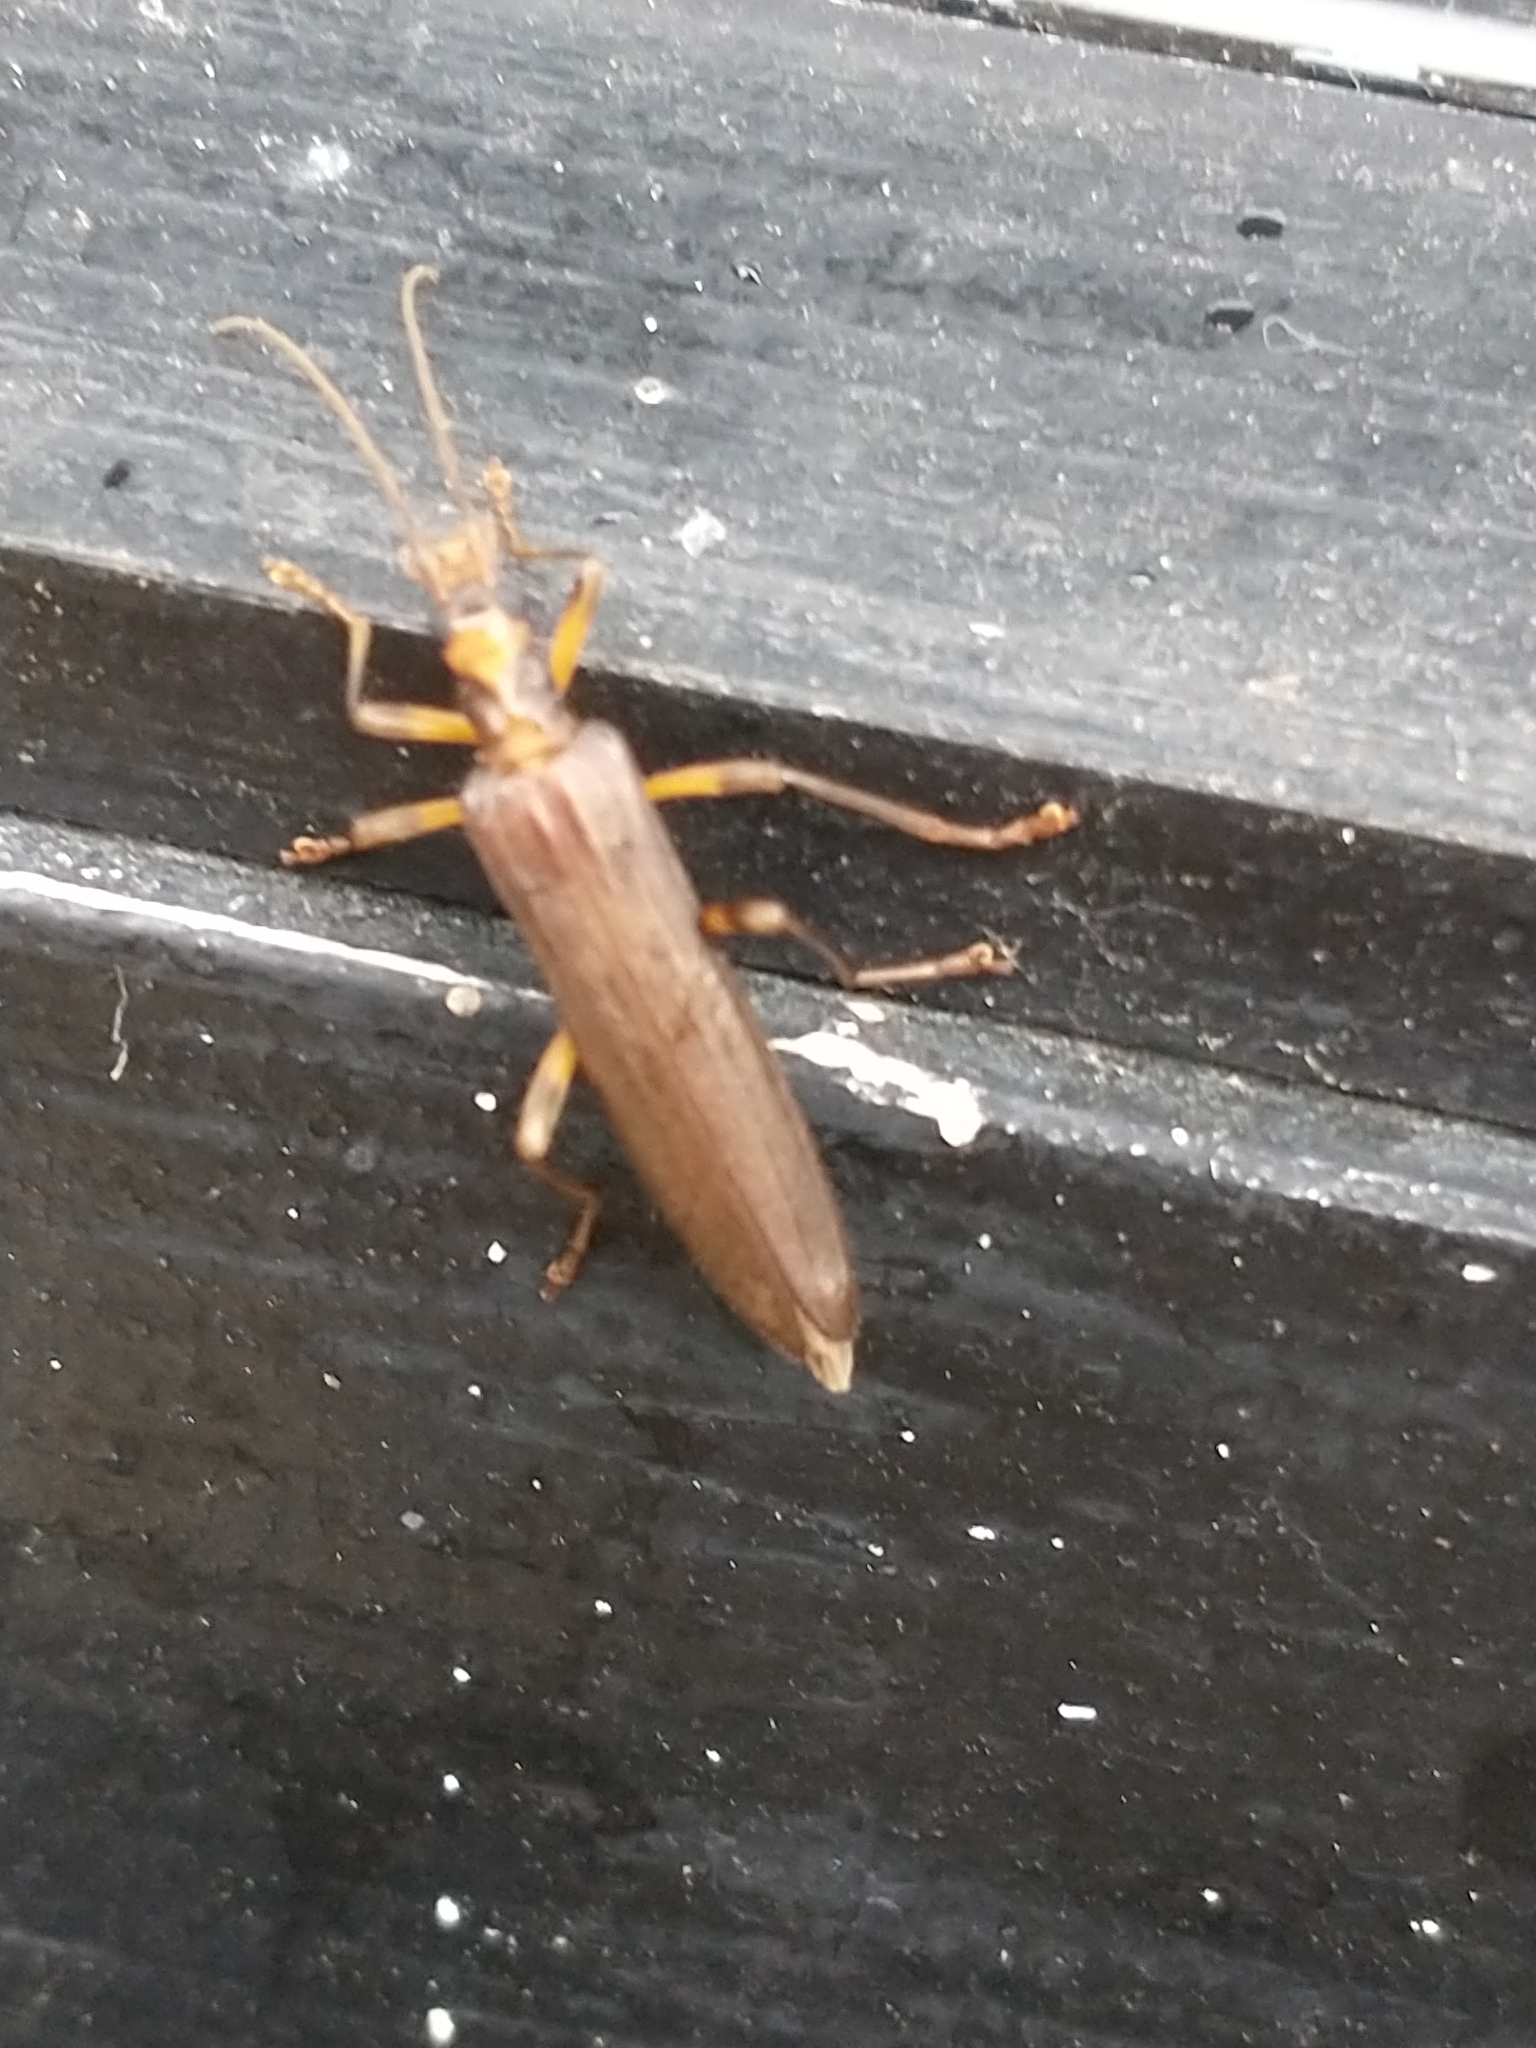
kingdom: Animalia
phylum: Arthropoda
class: Insecta
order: Coleoptera
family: Oedemeridae
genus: Oedemera
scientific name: Oedemera femoralis
